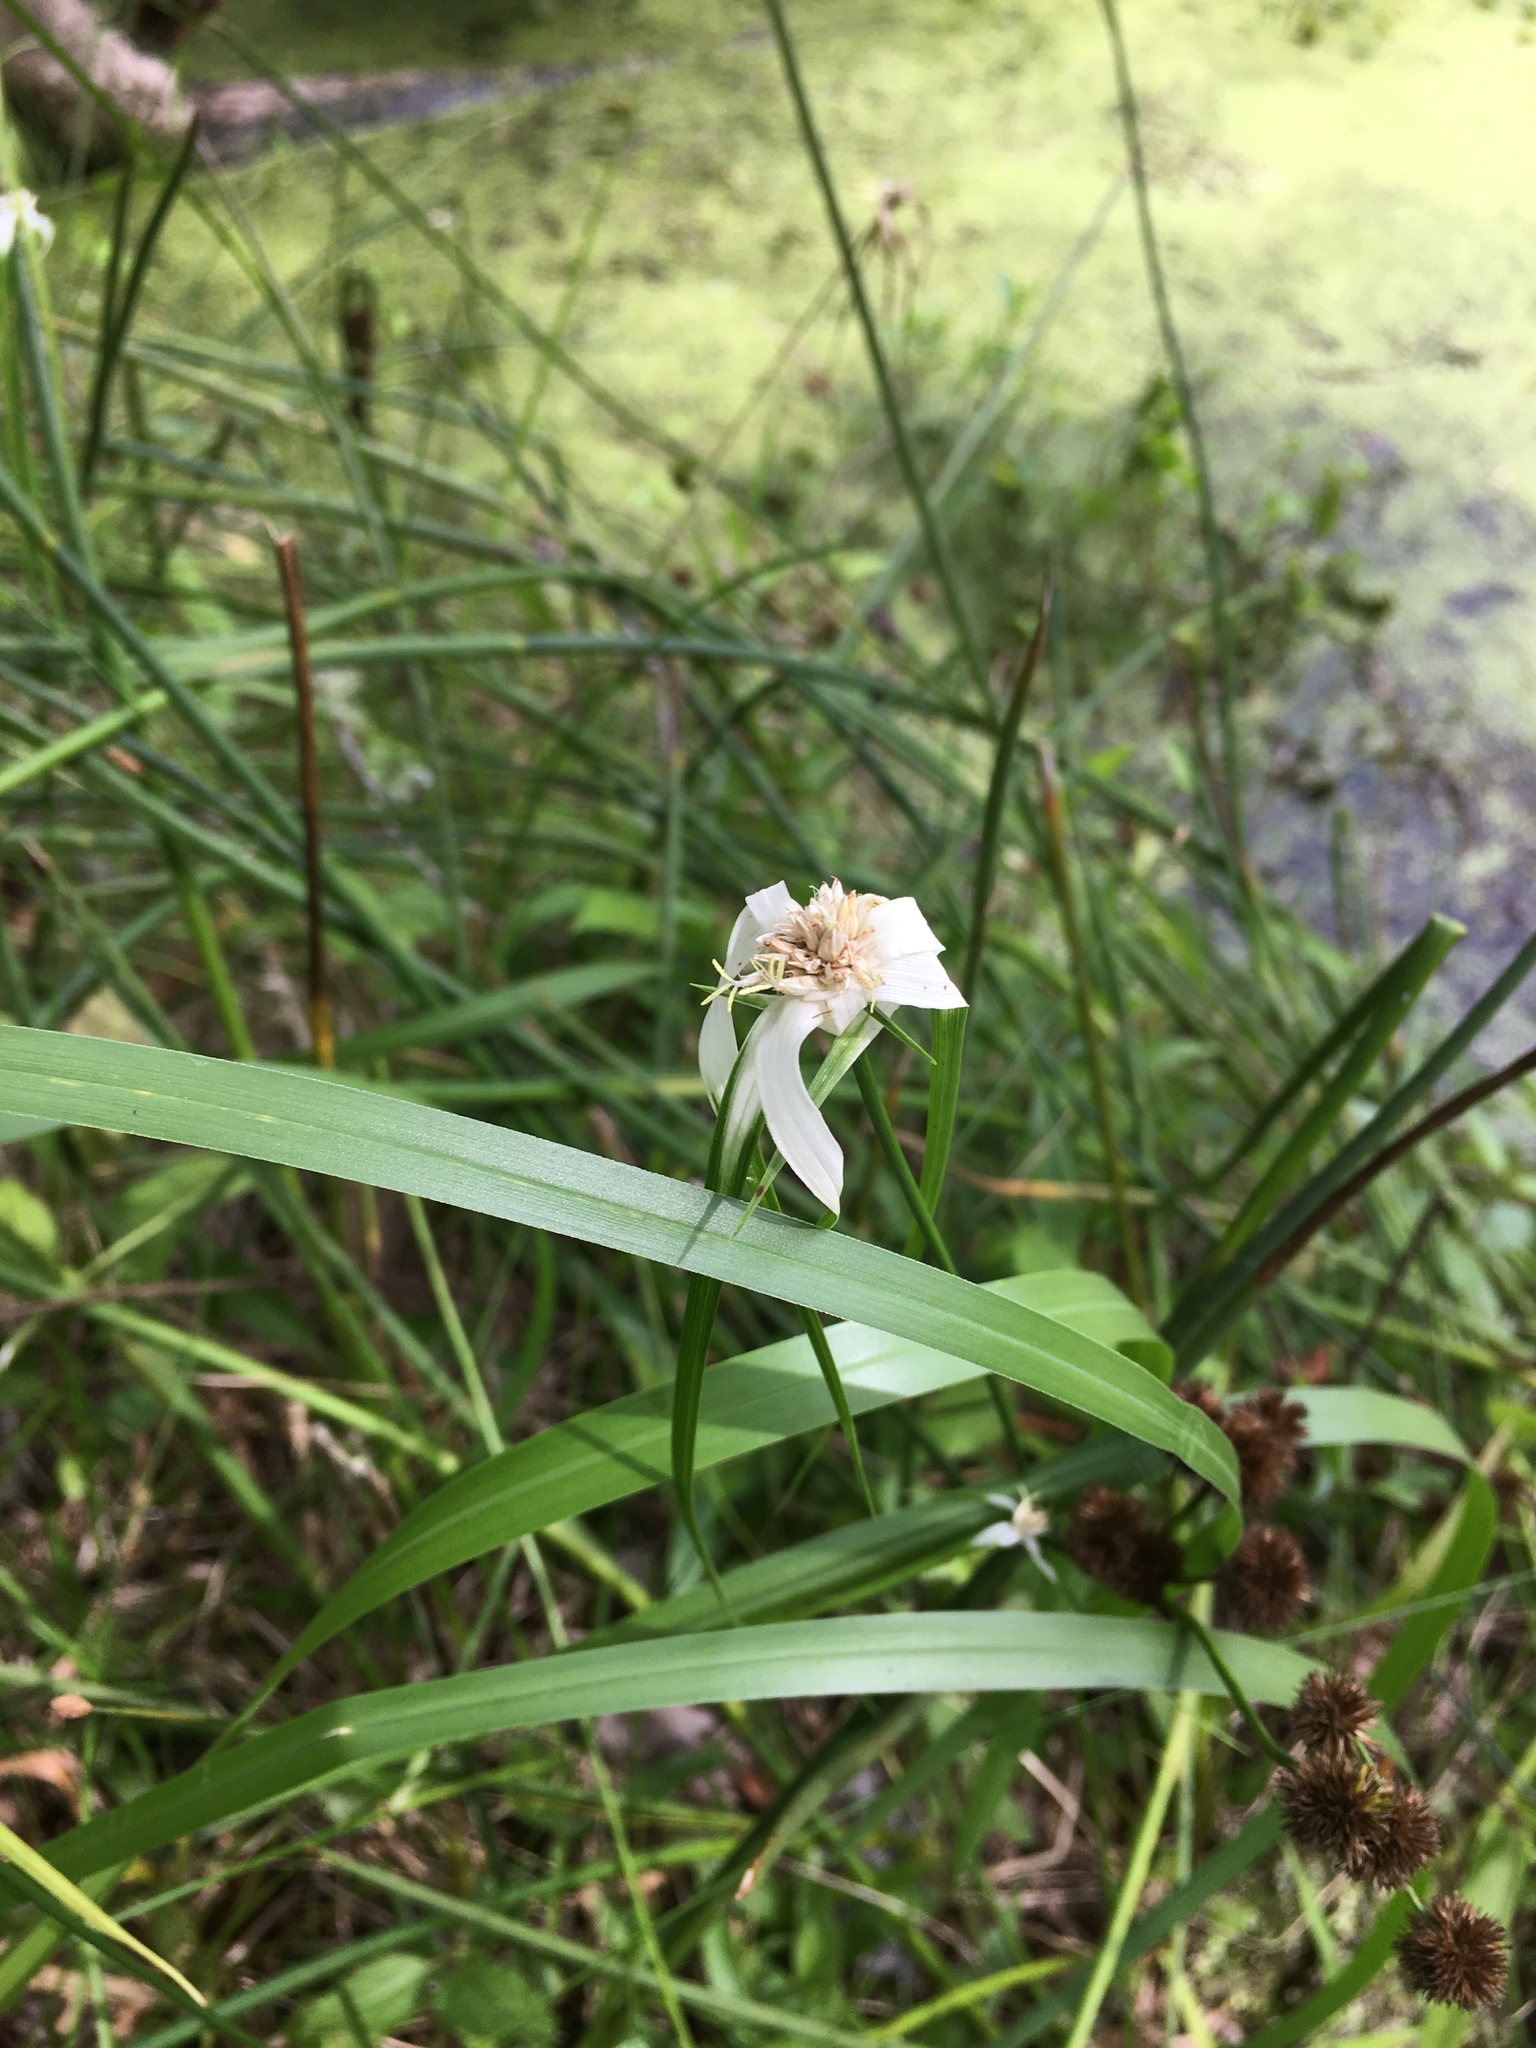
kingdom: Plantae
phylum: Tracheophyta
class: Liliopsida
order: Poales
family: Cyperaceae
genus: Rhynchospora
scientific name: Rhynchospora colorata
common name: Star sedge
